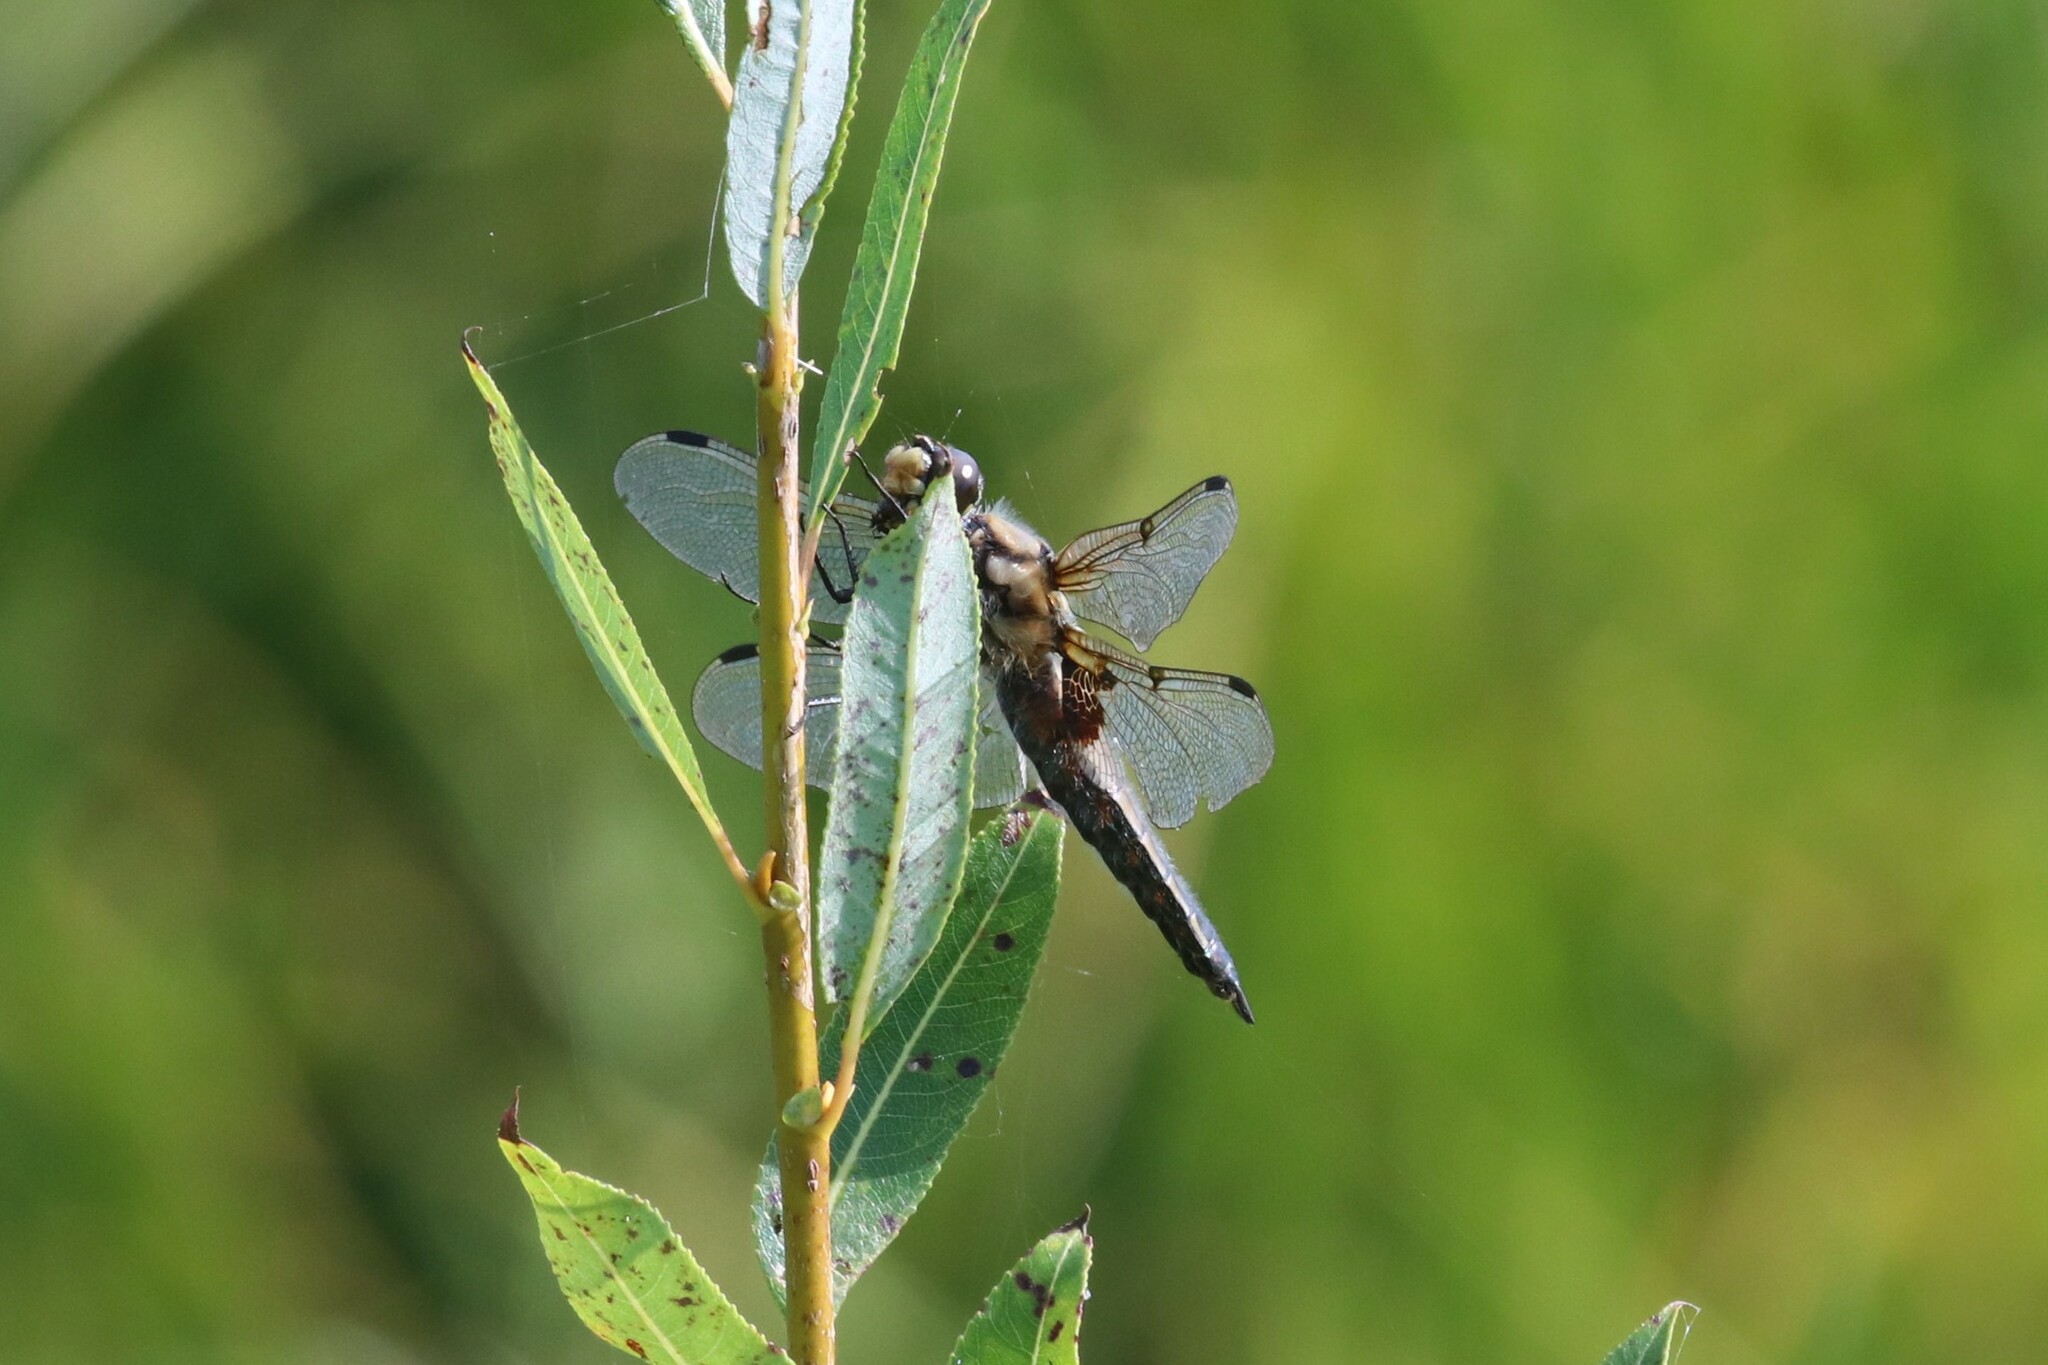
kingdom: Animalia
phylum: Arthropoda
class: Insecta
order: Odonata
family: Libellulidae
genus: Libellula
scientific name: Libellula quadrimaculata
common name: Four-spotted chaser
